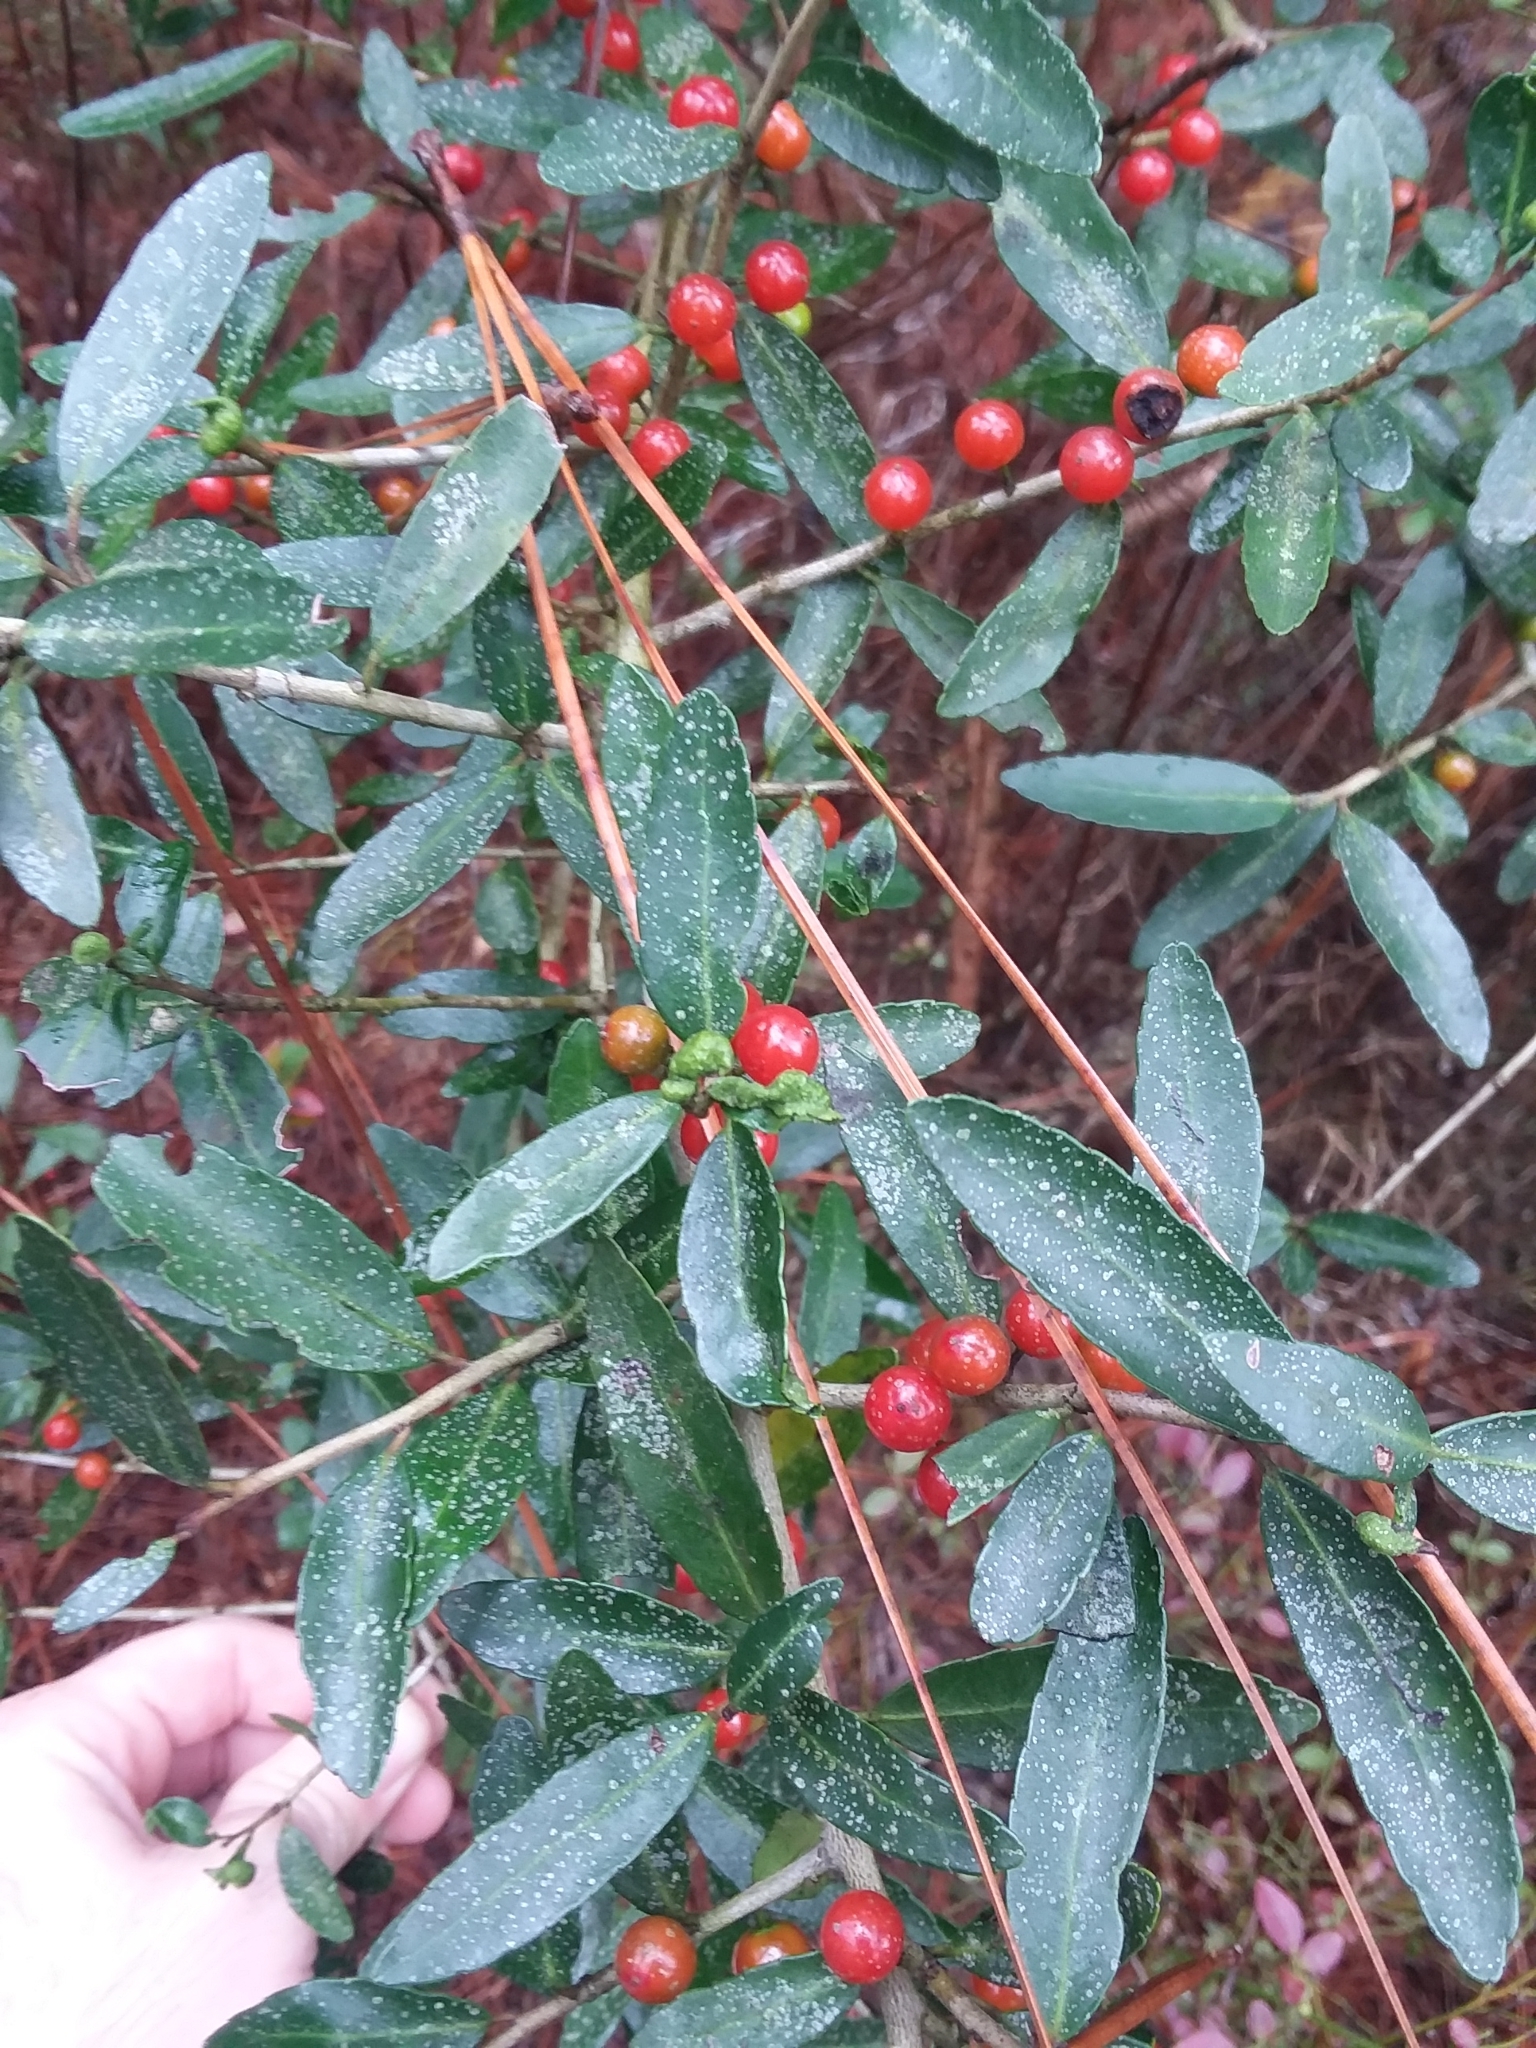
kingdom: Plantae
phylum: Tracheophyta
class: Magnoliopsida
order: Aquifoliales
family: Aquifoliaceae
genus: Ilex
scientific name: Ilex vomitoria
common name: Yaupon holly
